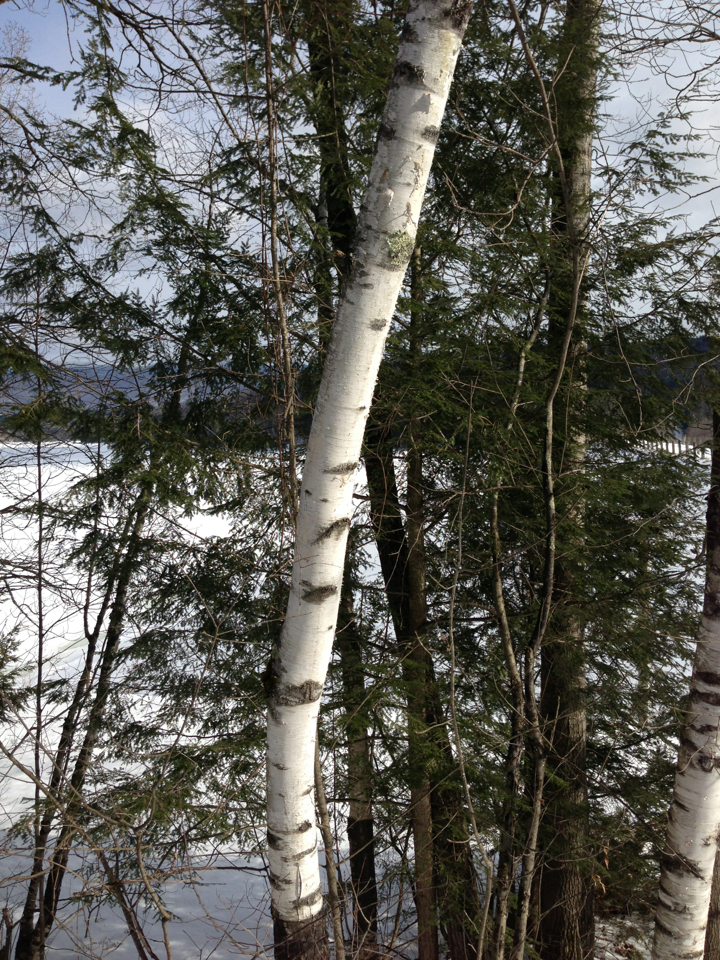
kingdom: Plantae
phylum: Tracheophyta
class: Magnoliopsida
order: Fagales
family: Betulaceae
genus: Betula
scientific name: Betula papyrifera
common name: Paper birch
